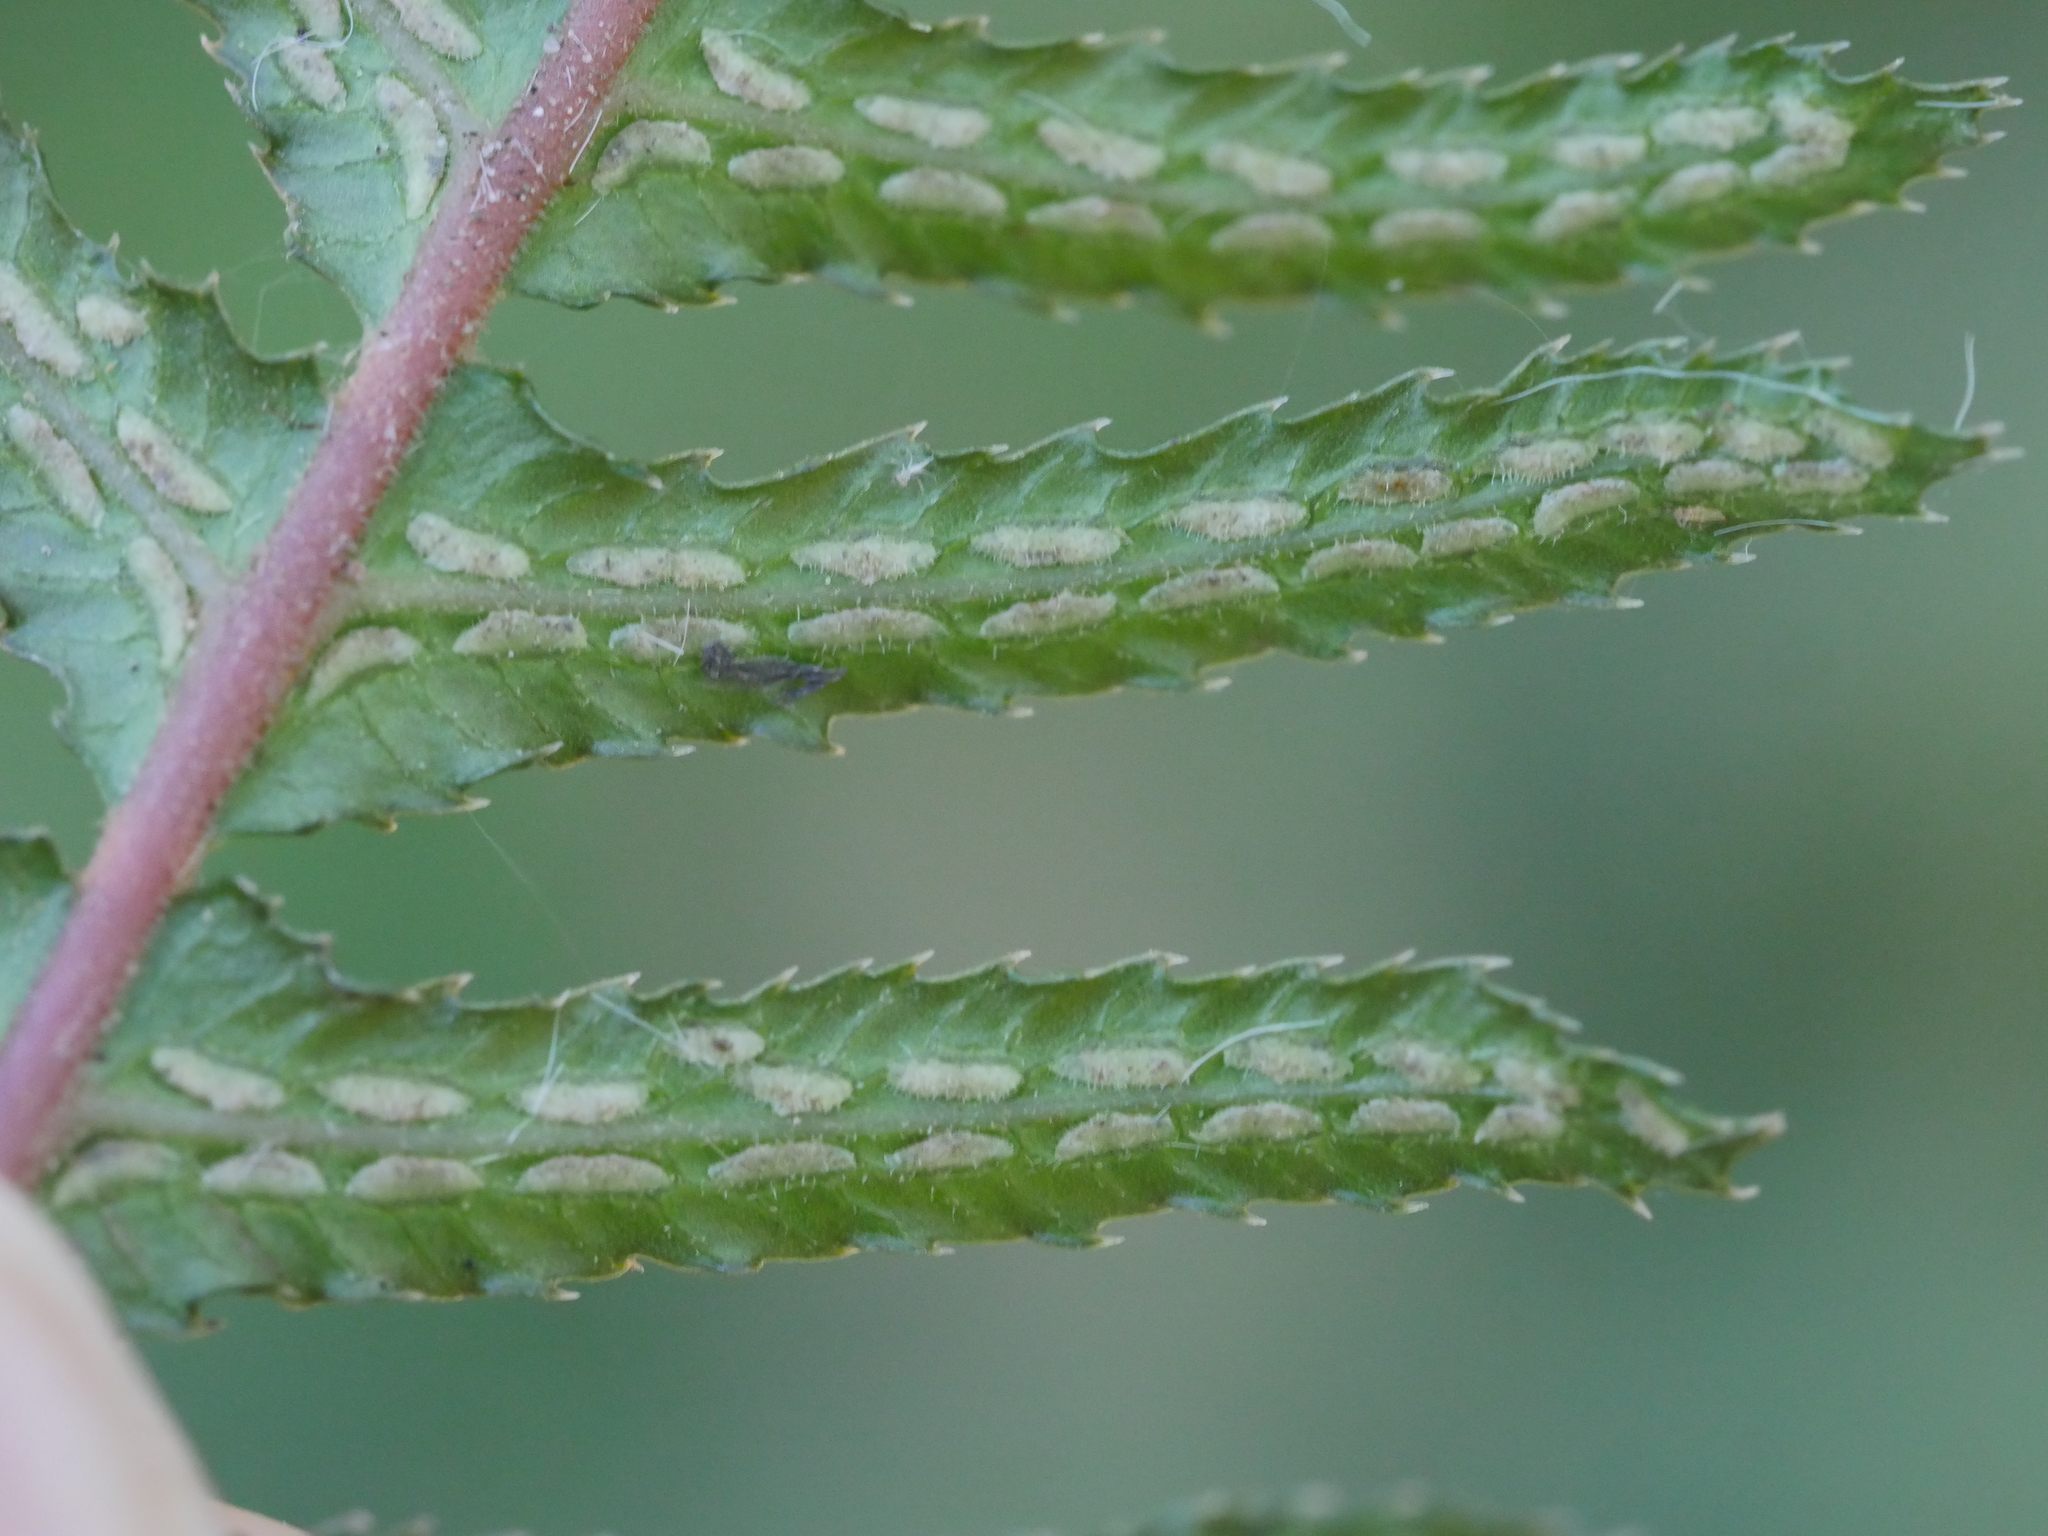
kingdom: Plantae
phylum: Tracheophyta
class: Polypodiopsida
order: Polypodiales
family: Blechnaceae
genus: Doodia
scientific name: Doodia australis
